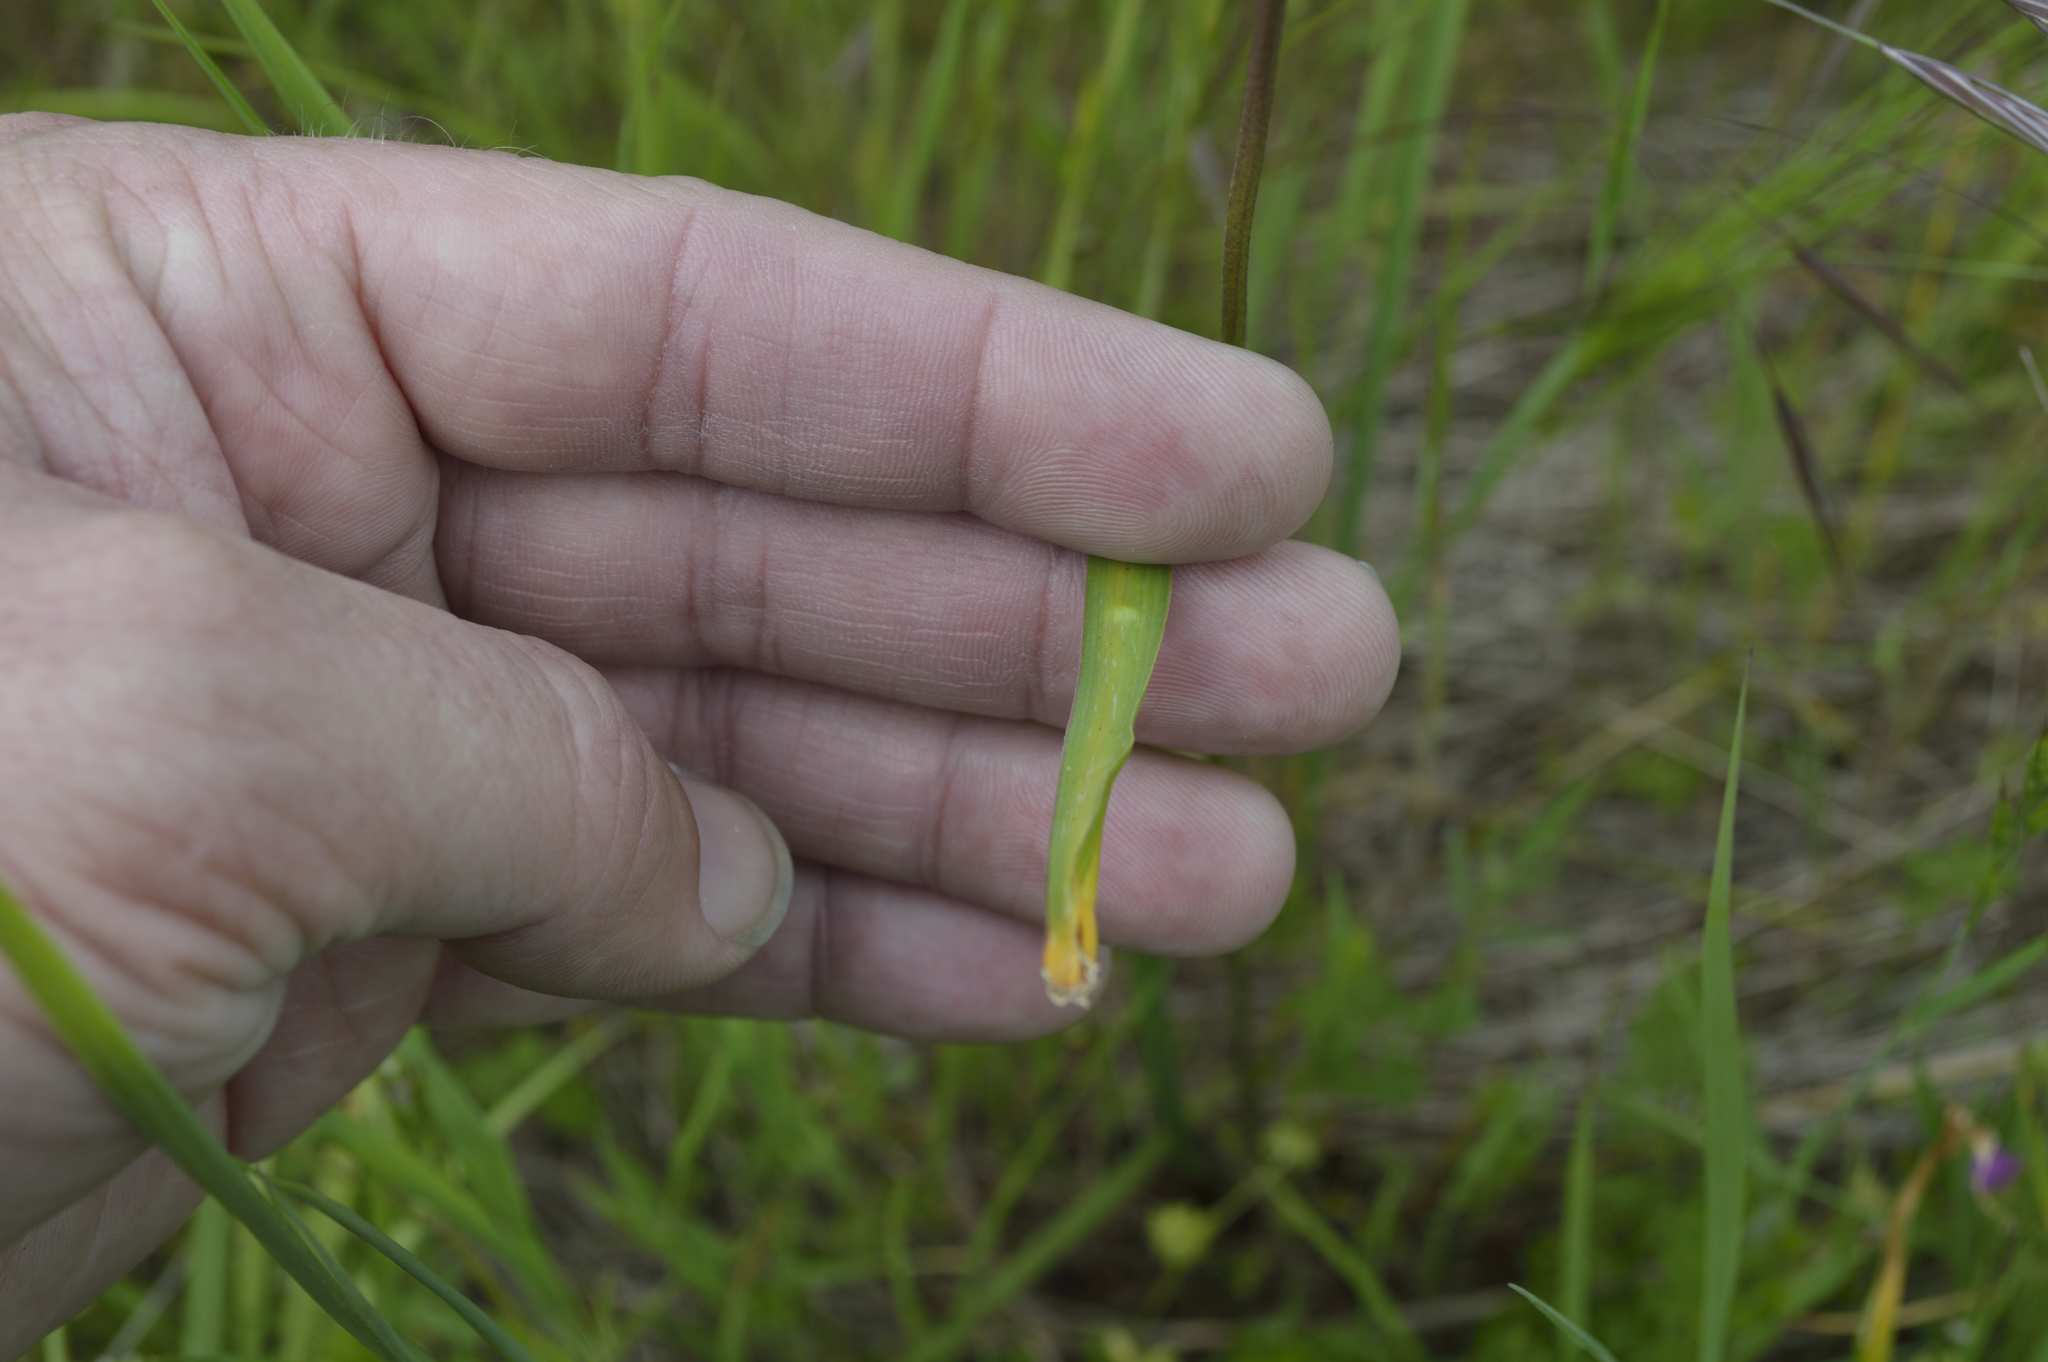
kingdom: Plantae
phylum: Tracheophyta
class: Liliopsida
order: Asparagales
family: Asparagaceae
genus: Dichelostemma
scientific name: Dichelostemma congestum
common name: Fork-tooth ookow
